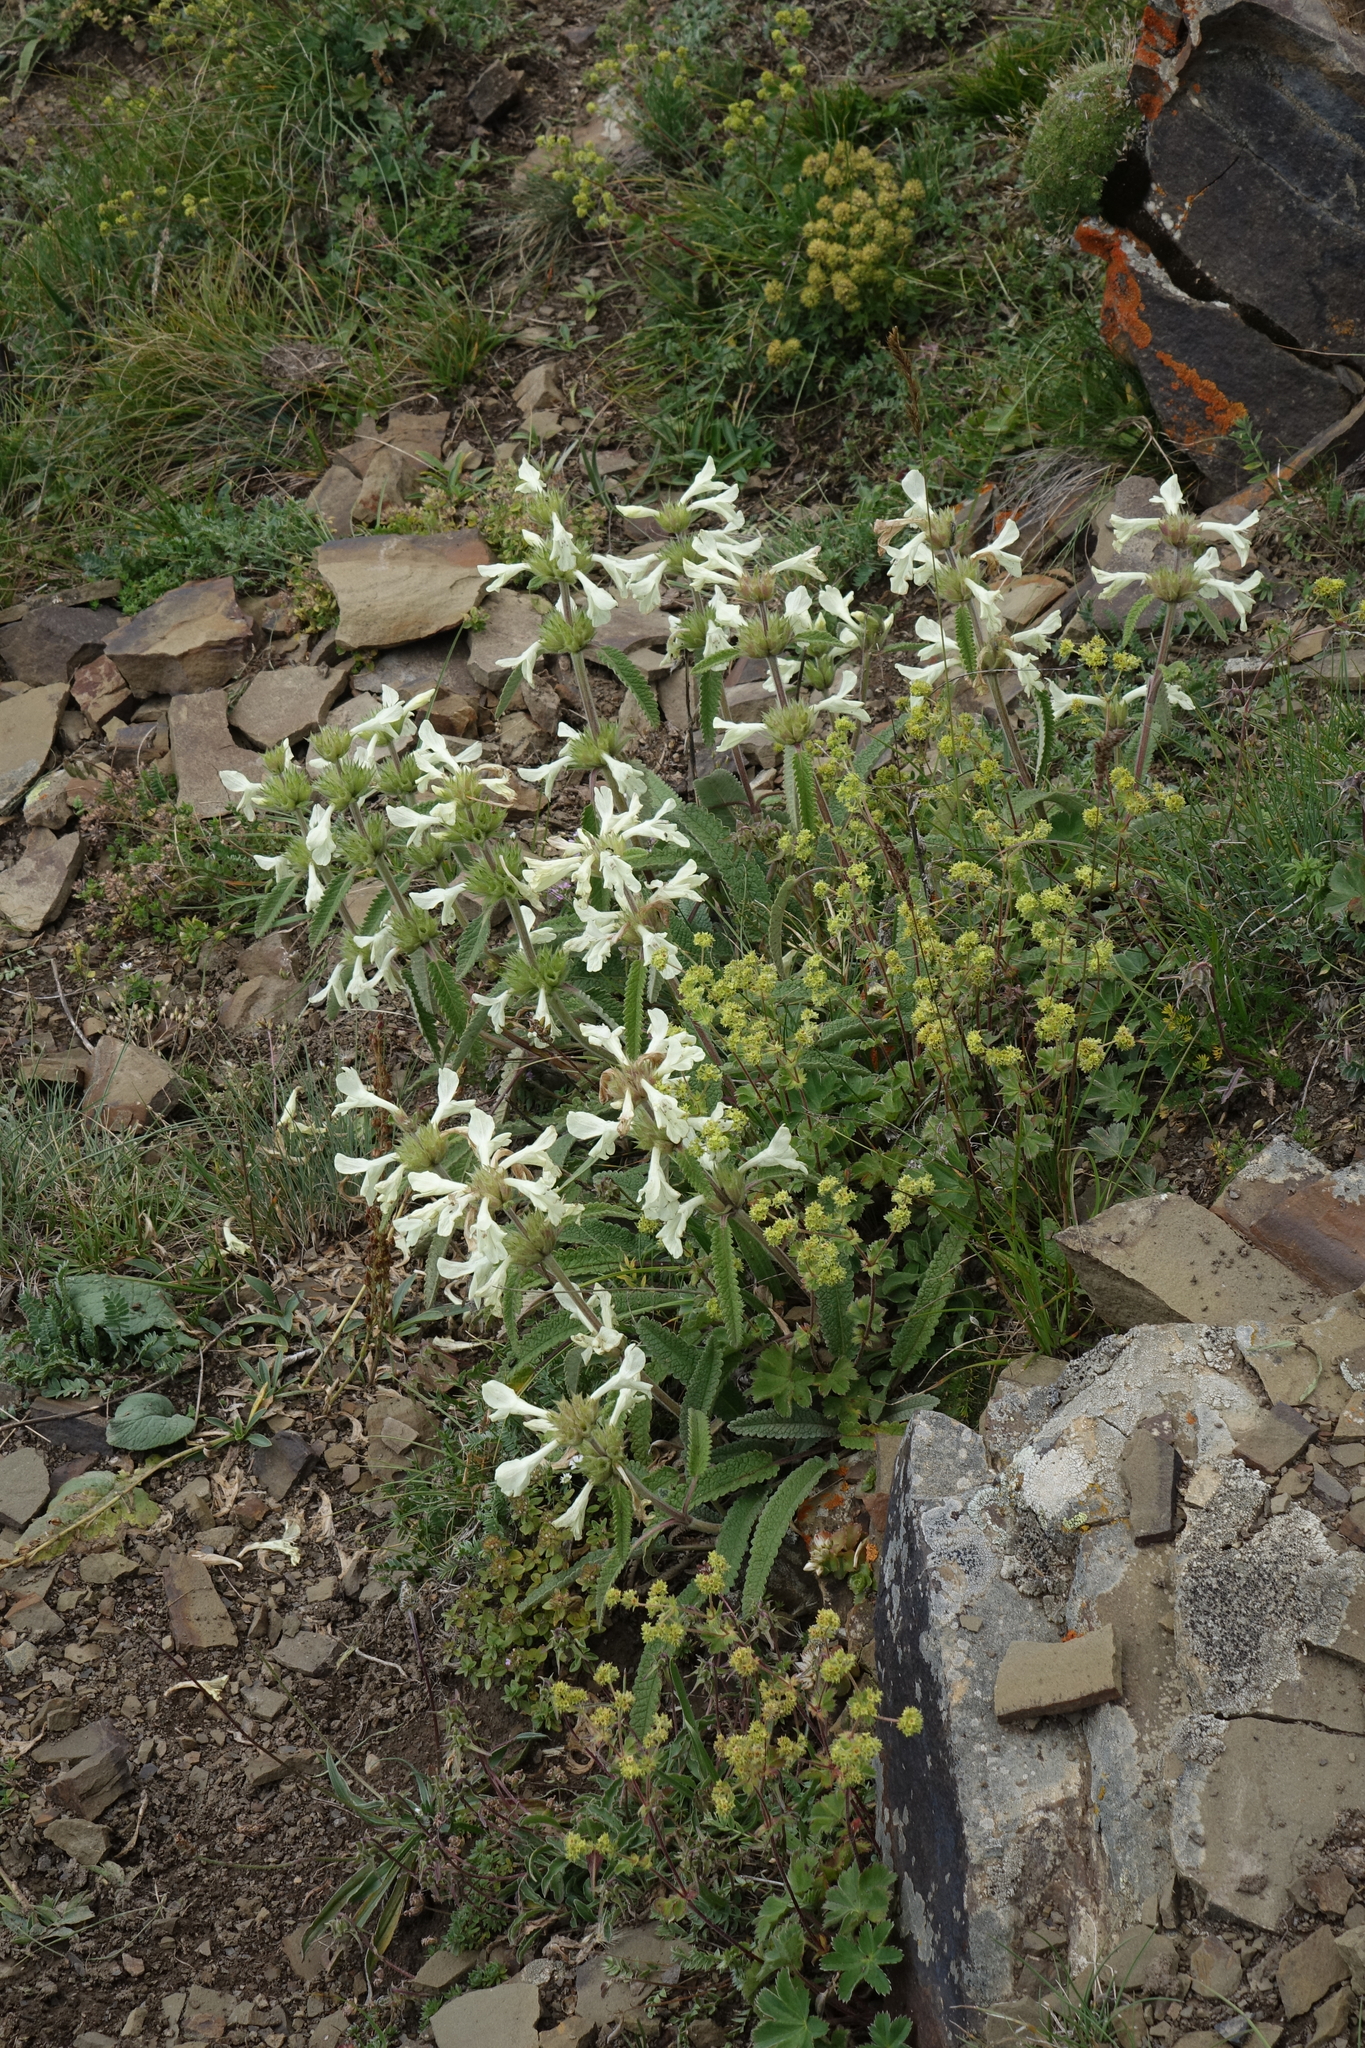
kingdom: Plantae
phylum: Tracheophyta
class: Magnoliopsida
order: Lamiales
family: Lamiaceae
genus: Betonica
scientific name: Betonica nivea
